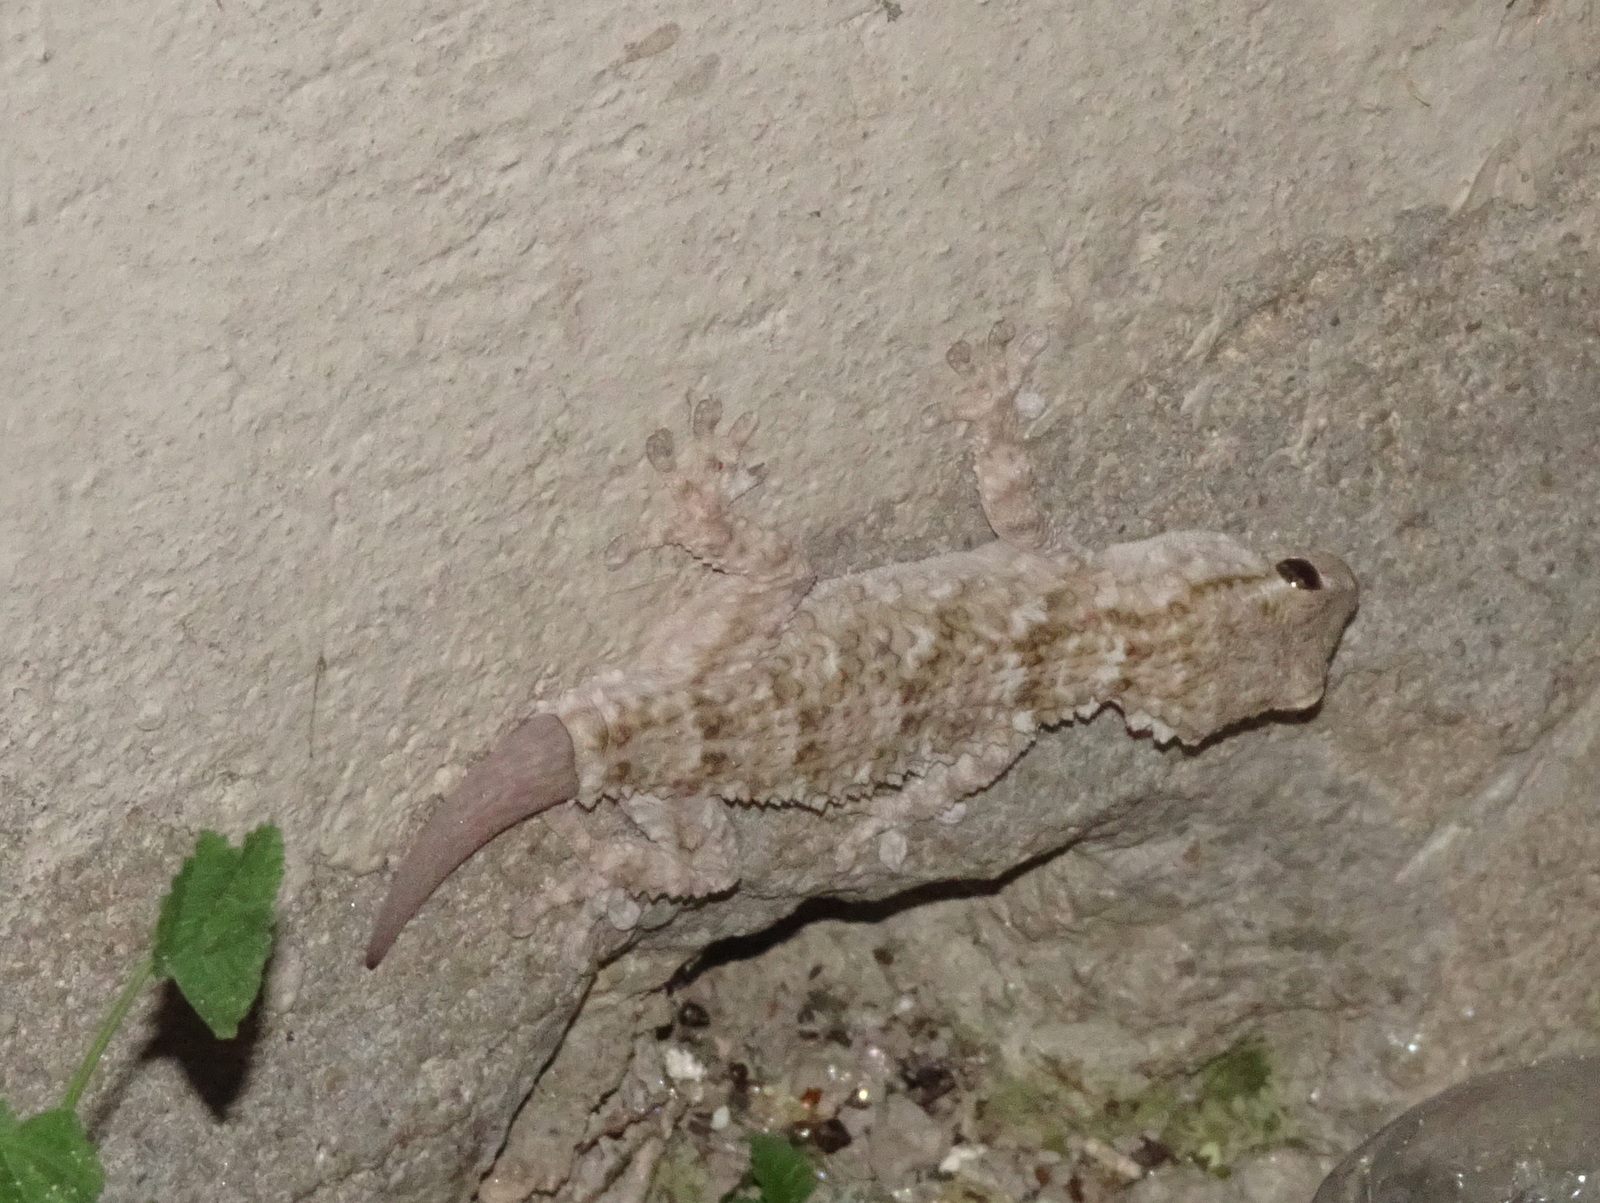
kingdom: Animalia
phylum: Chordata
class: Squamata
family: Phyllodactylidae
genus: Tarentola
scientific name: Tarentola mauritanica
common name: Moorish gecko
